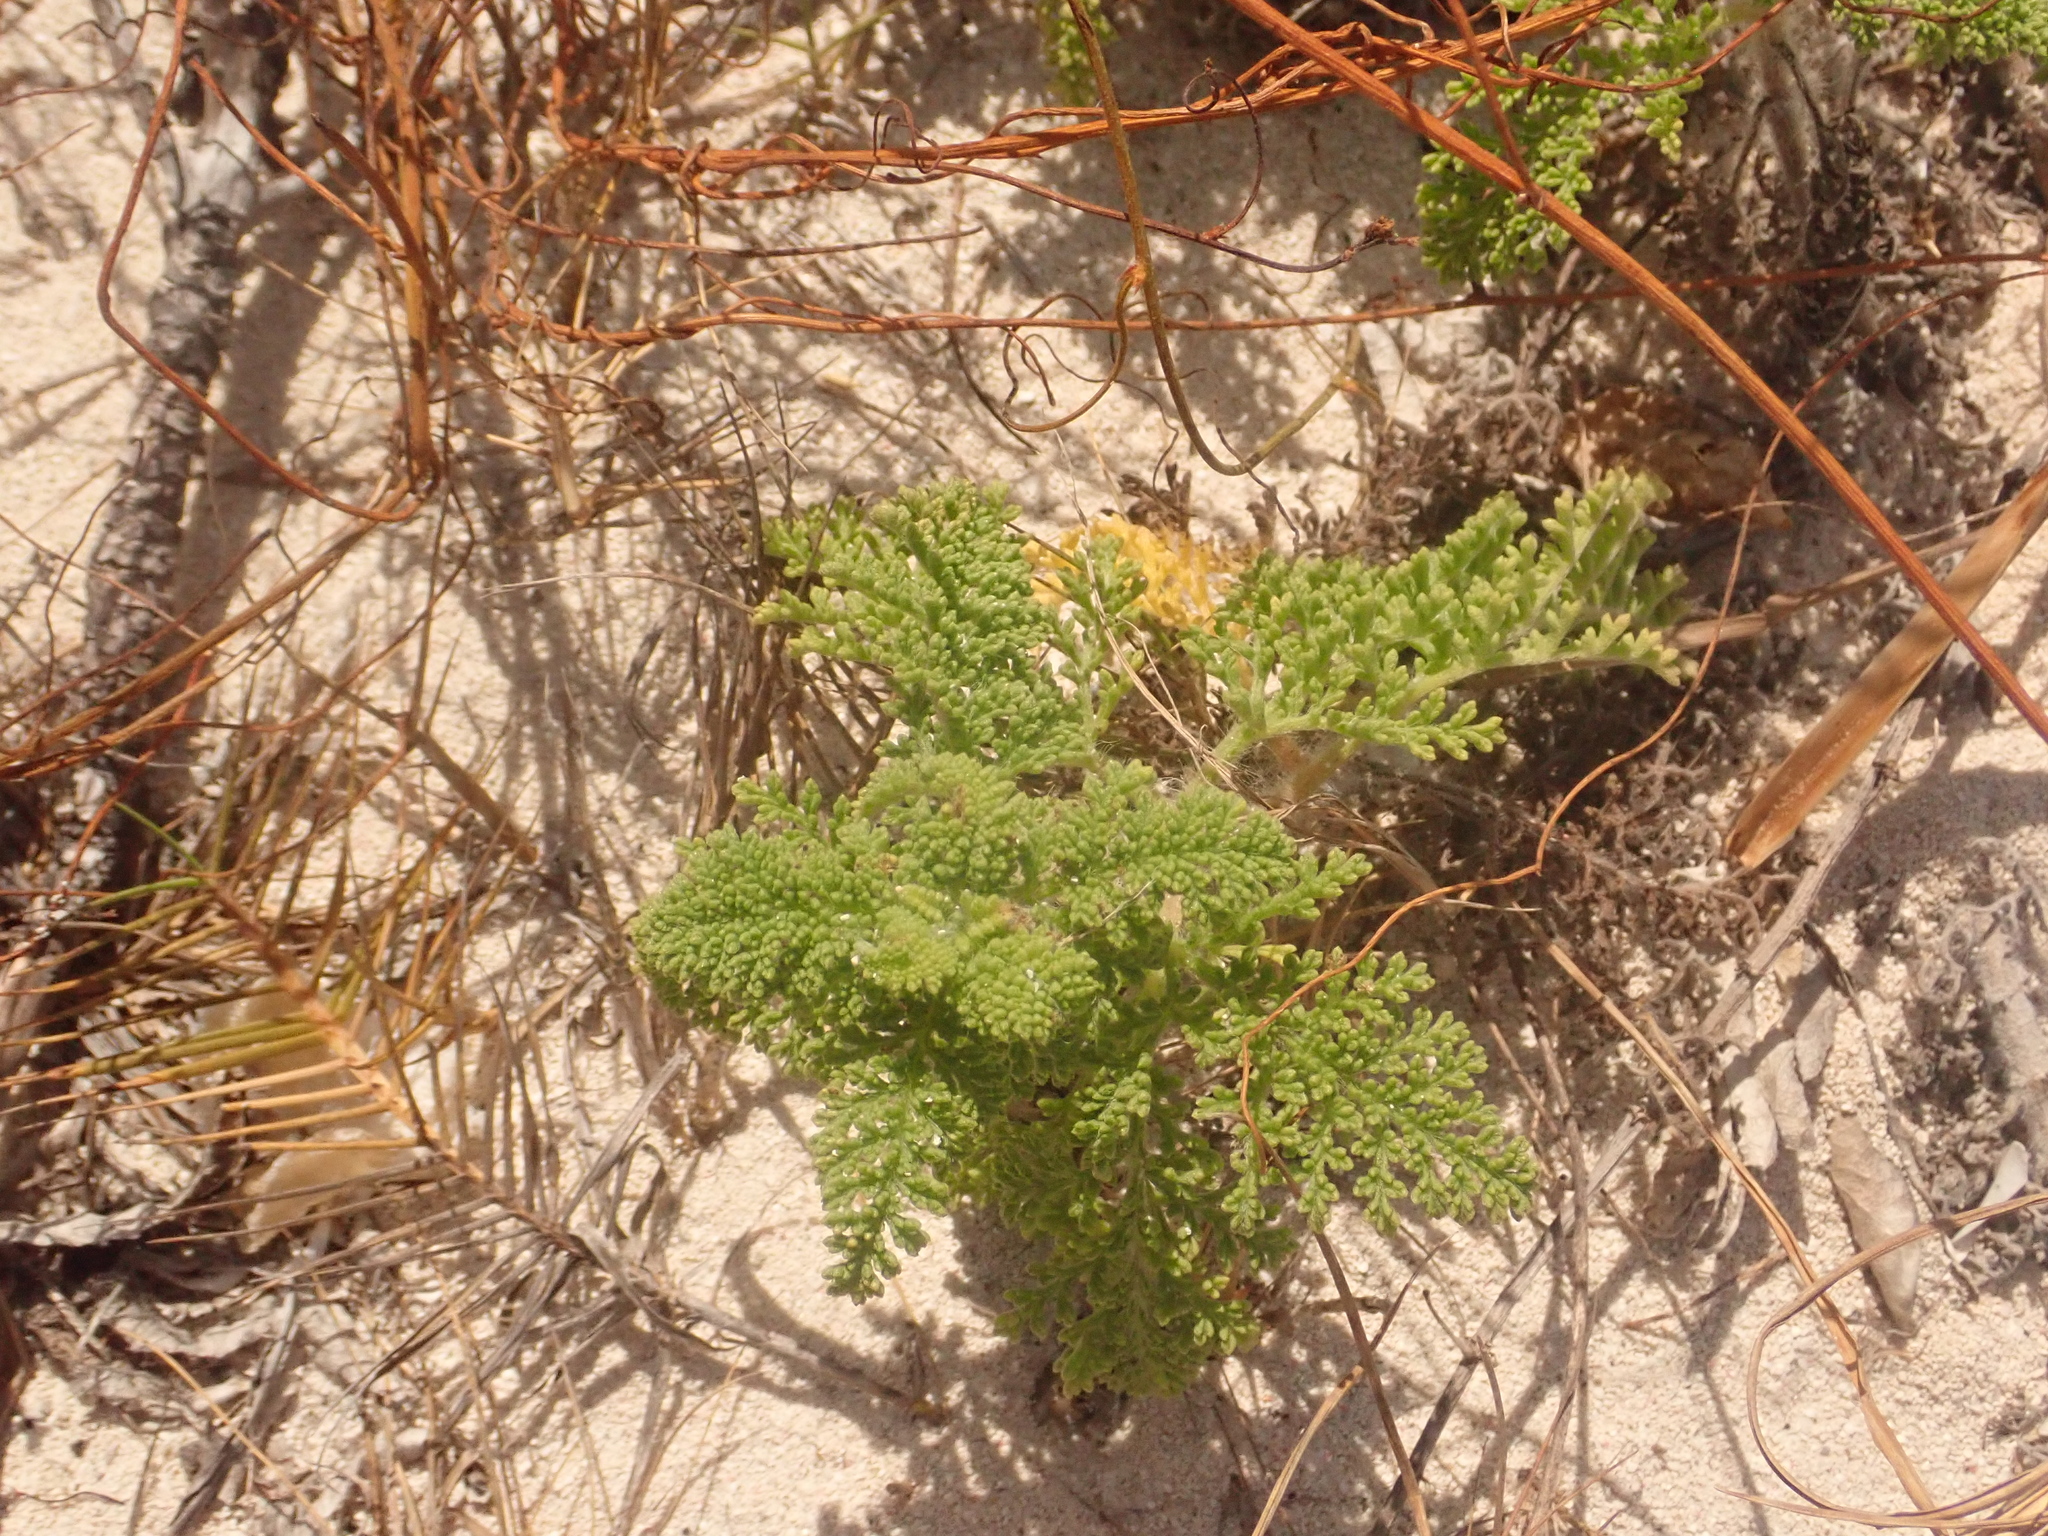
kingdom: Plantae
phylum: Tracheophyta
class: Magnoliopsida
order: Asterales
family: Asteraceae
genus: Ambrosia
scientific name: Ambrosia hispida
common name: Coastal ragweed
